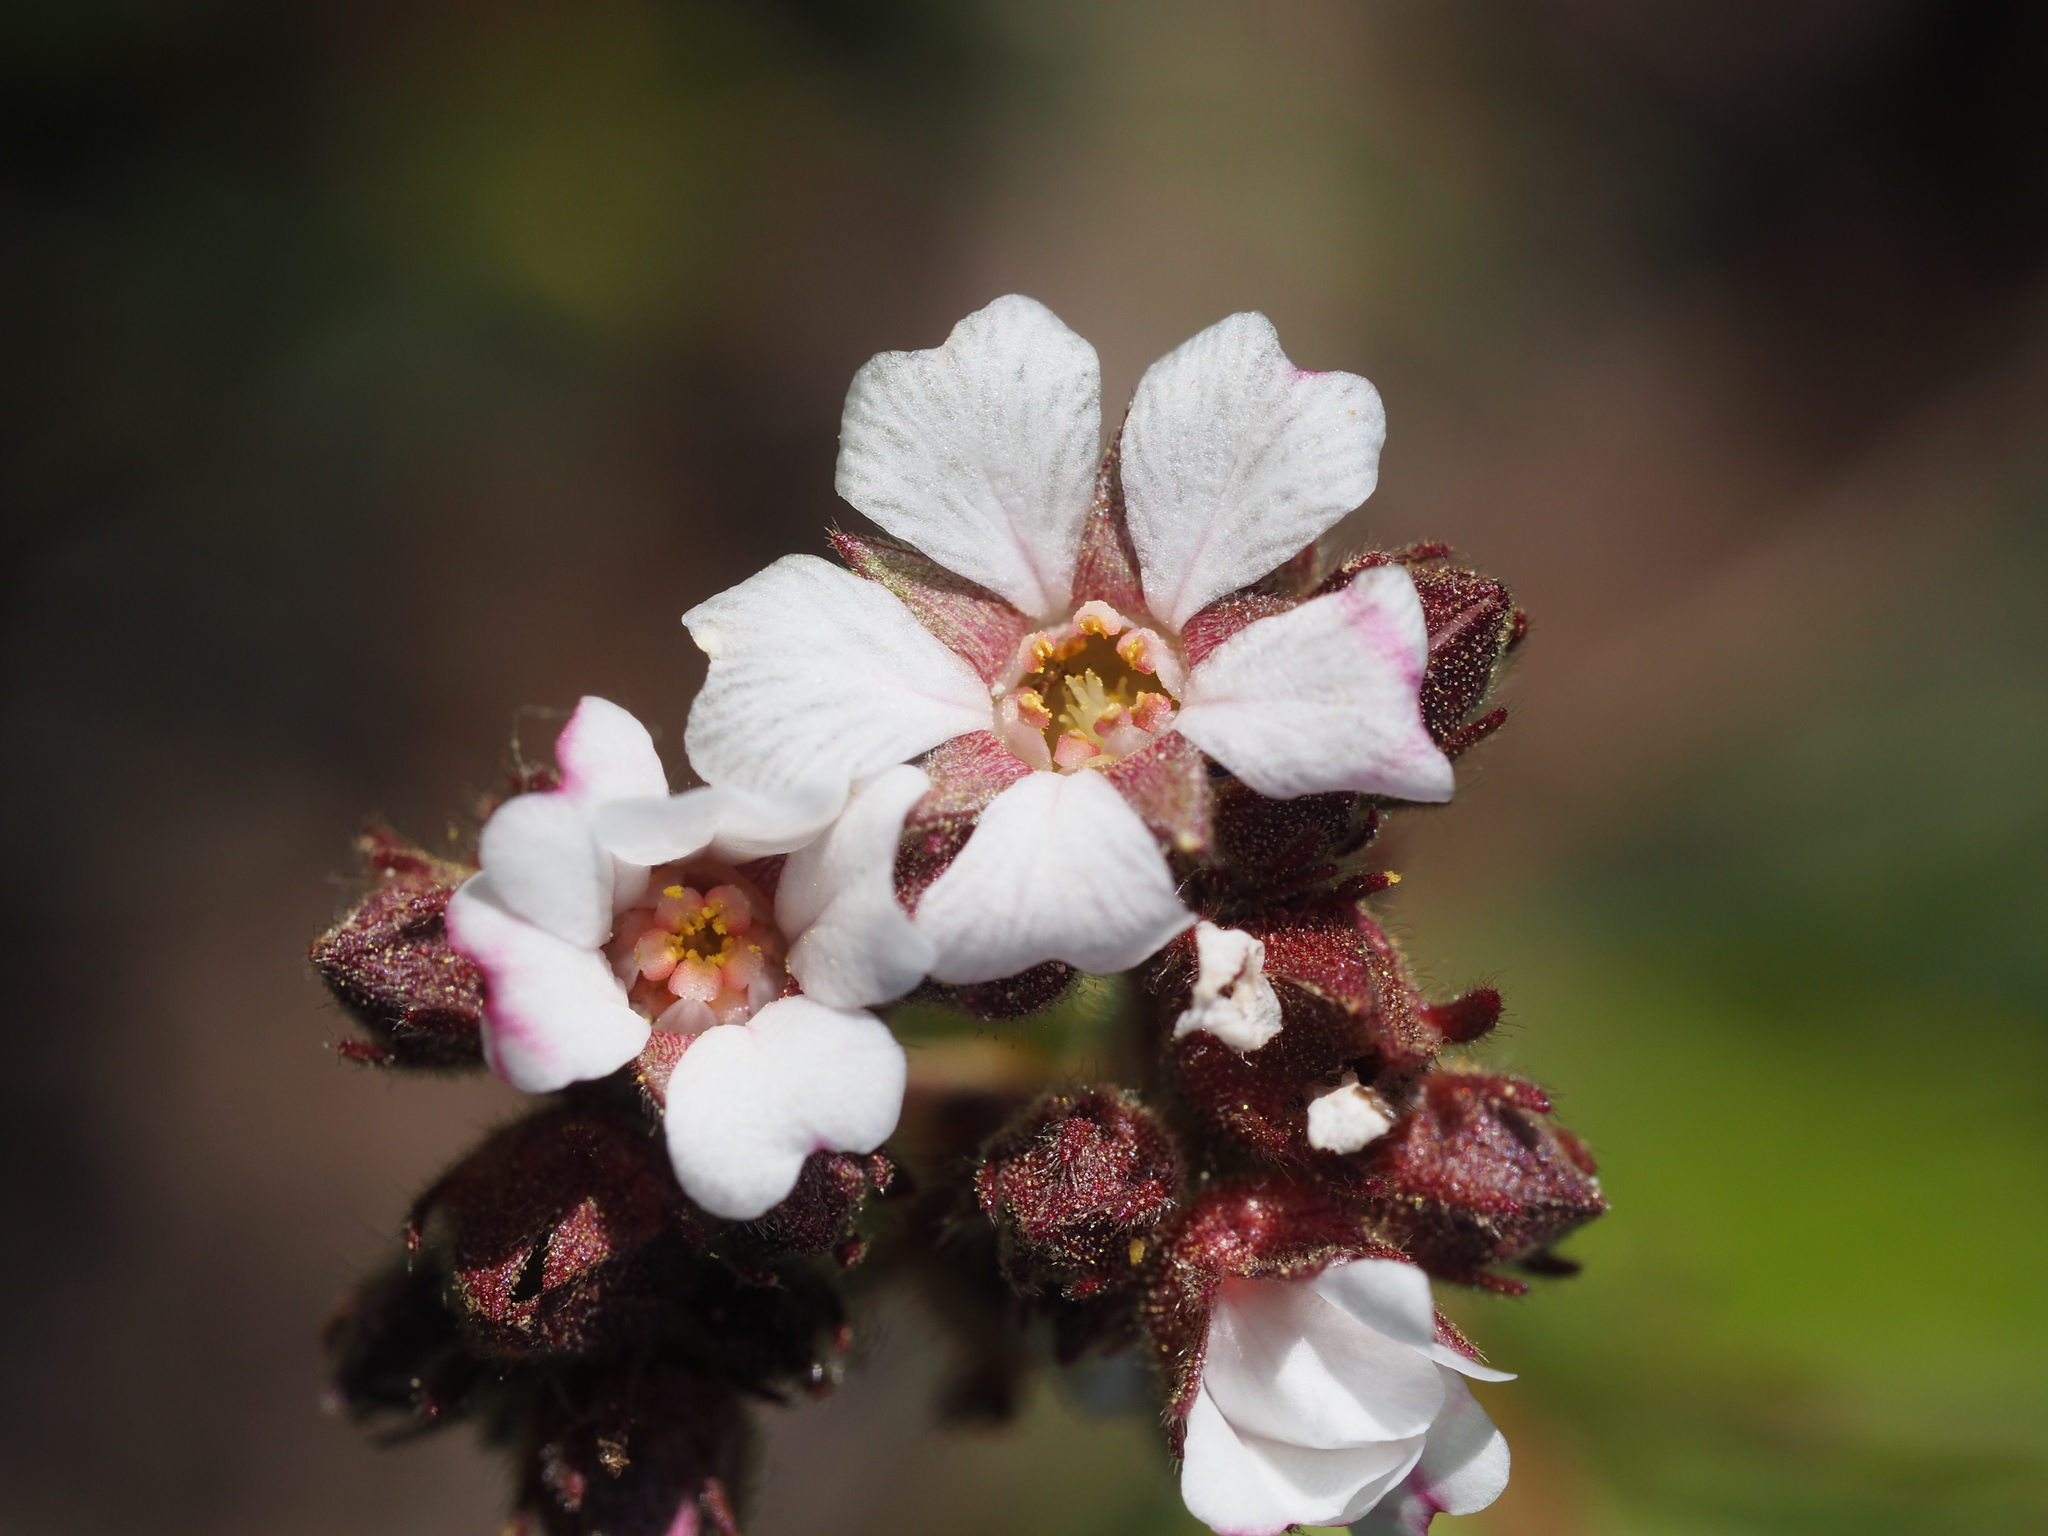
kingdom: Plantae
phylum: Tracheophyta
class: Magnoliopsida
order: Rosales
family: Rosaceae
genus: Potentilla
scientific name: Potentilla douglasii
